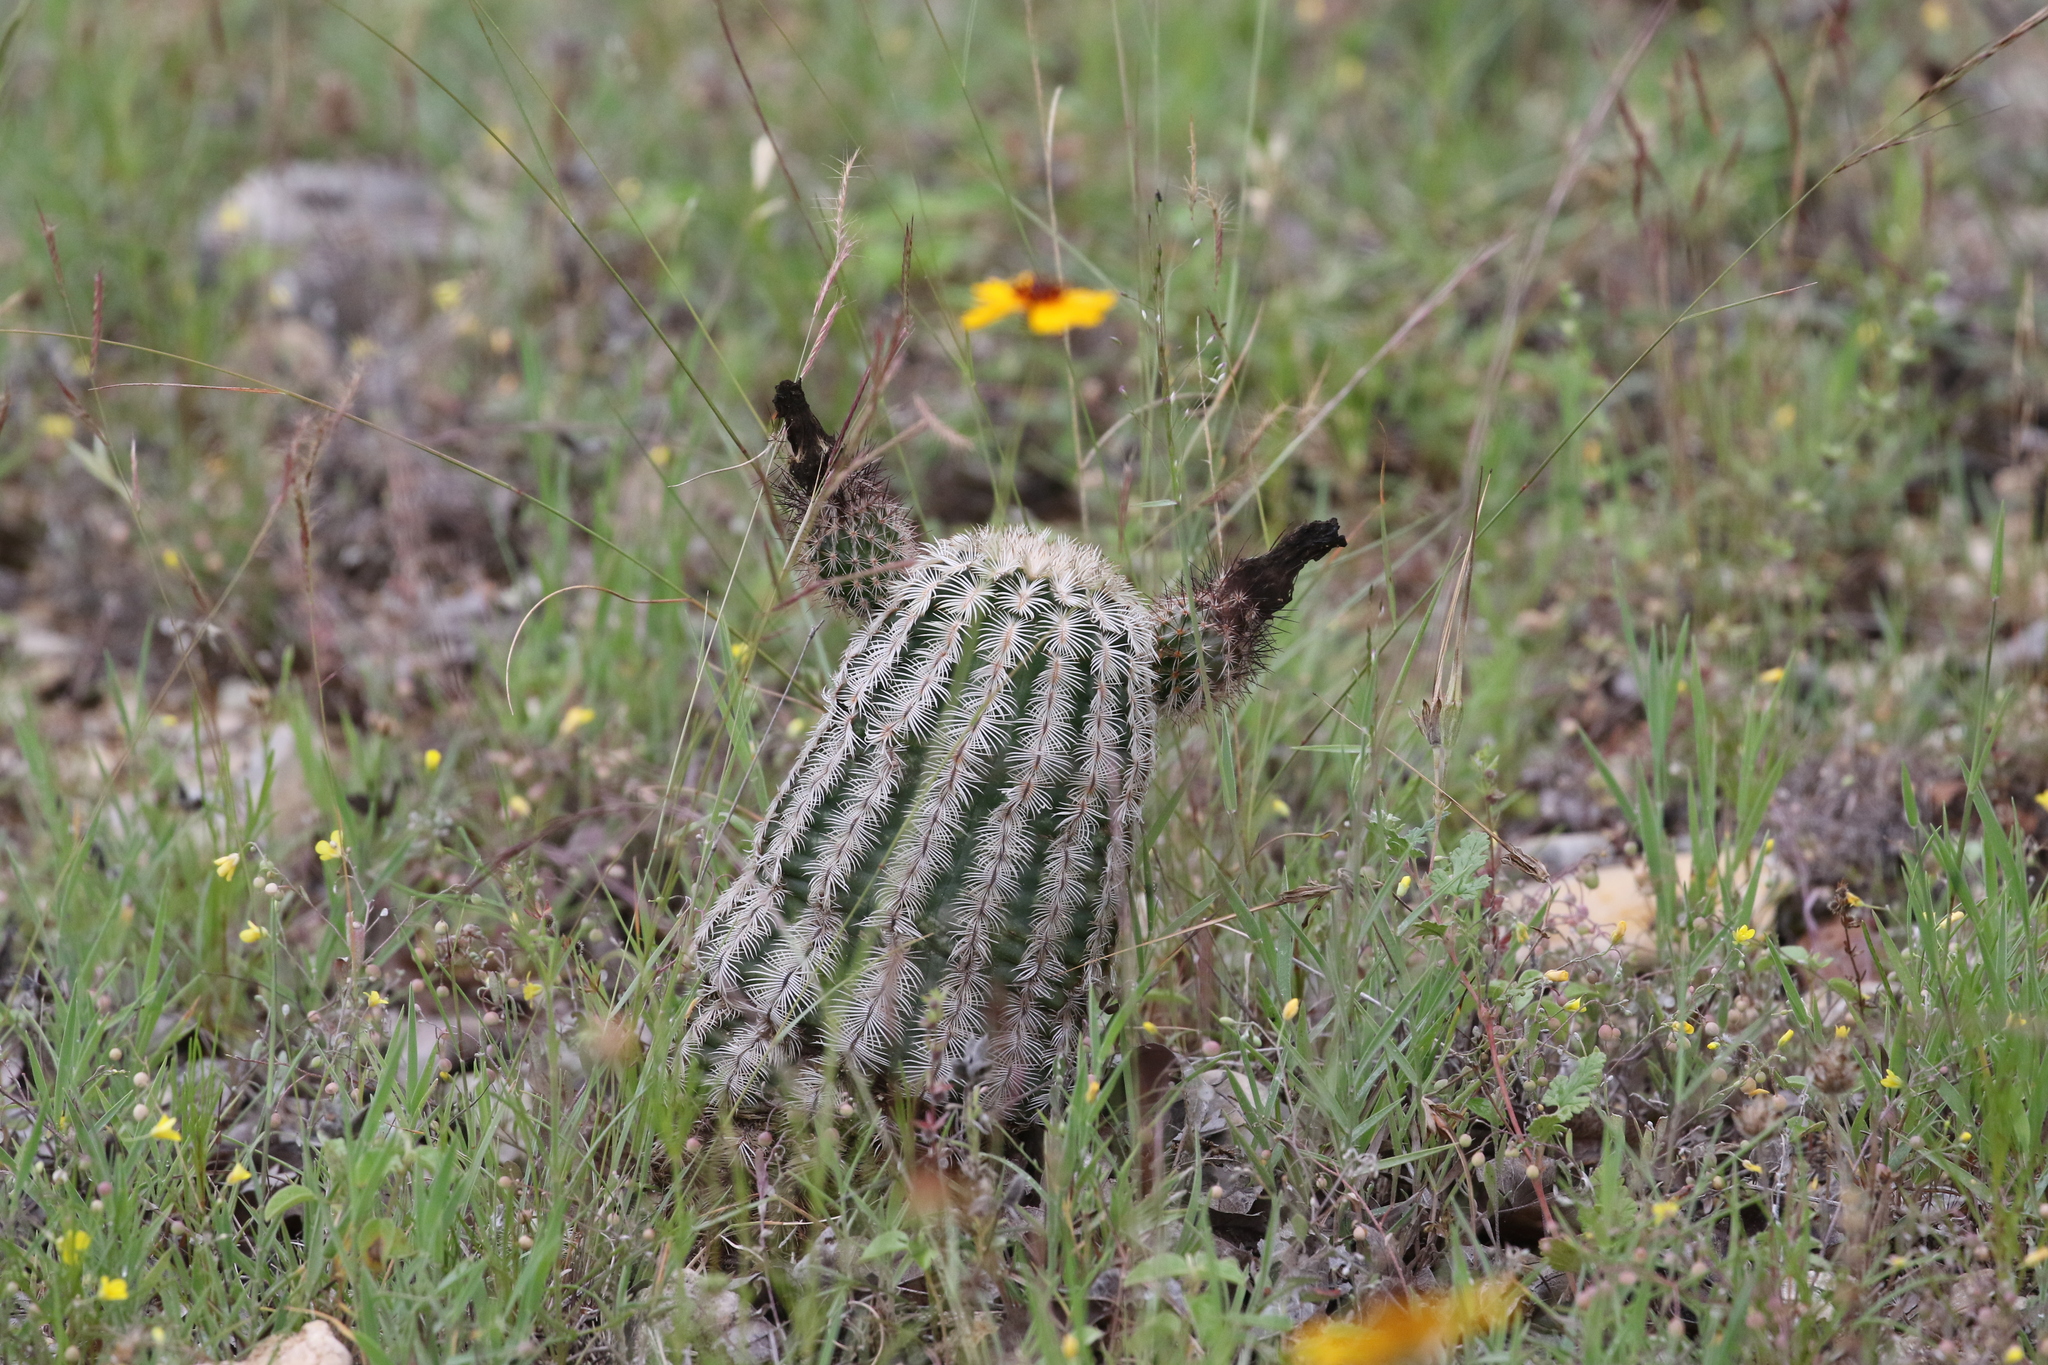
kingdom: Plantae
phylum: Tracheophyta
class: Magnoliopsida
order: Caryophyllales
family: Cactaceae
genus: Echinocereus
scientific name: Echinocereus reichenbachii
